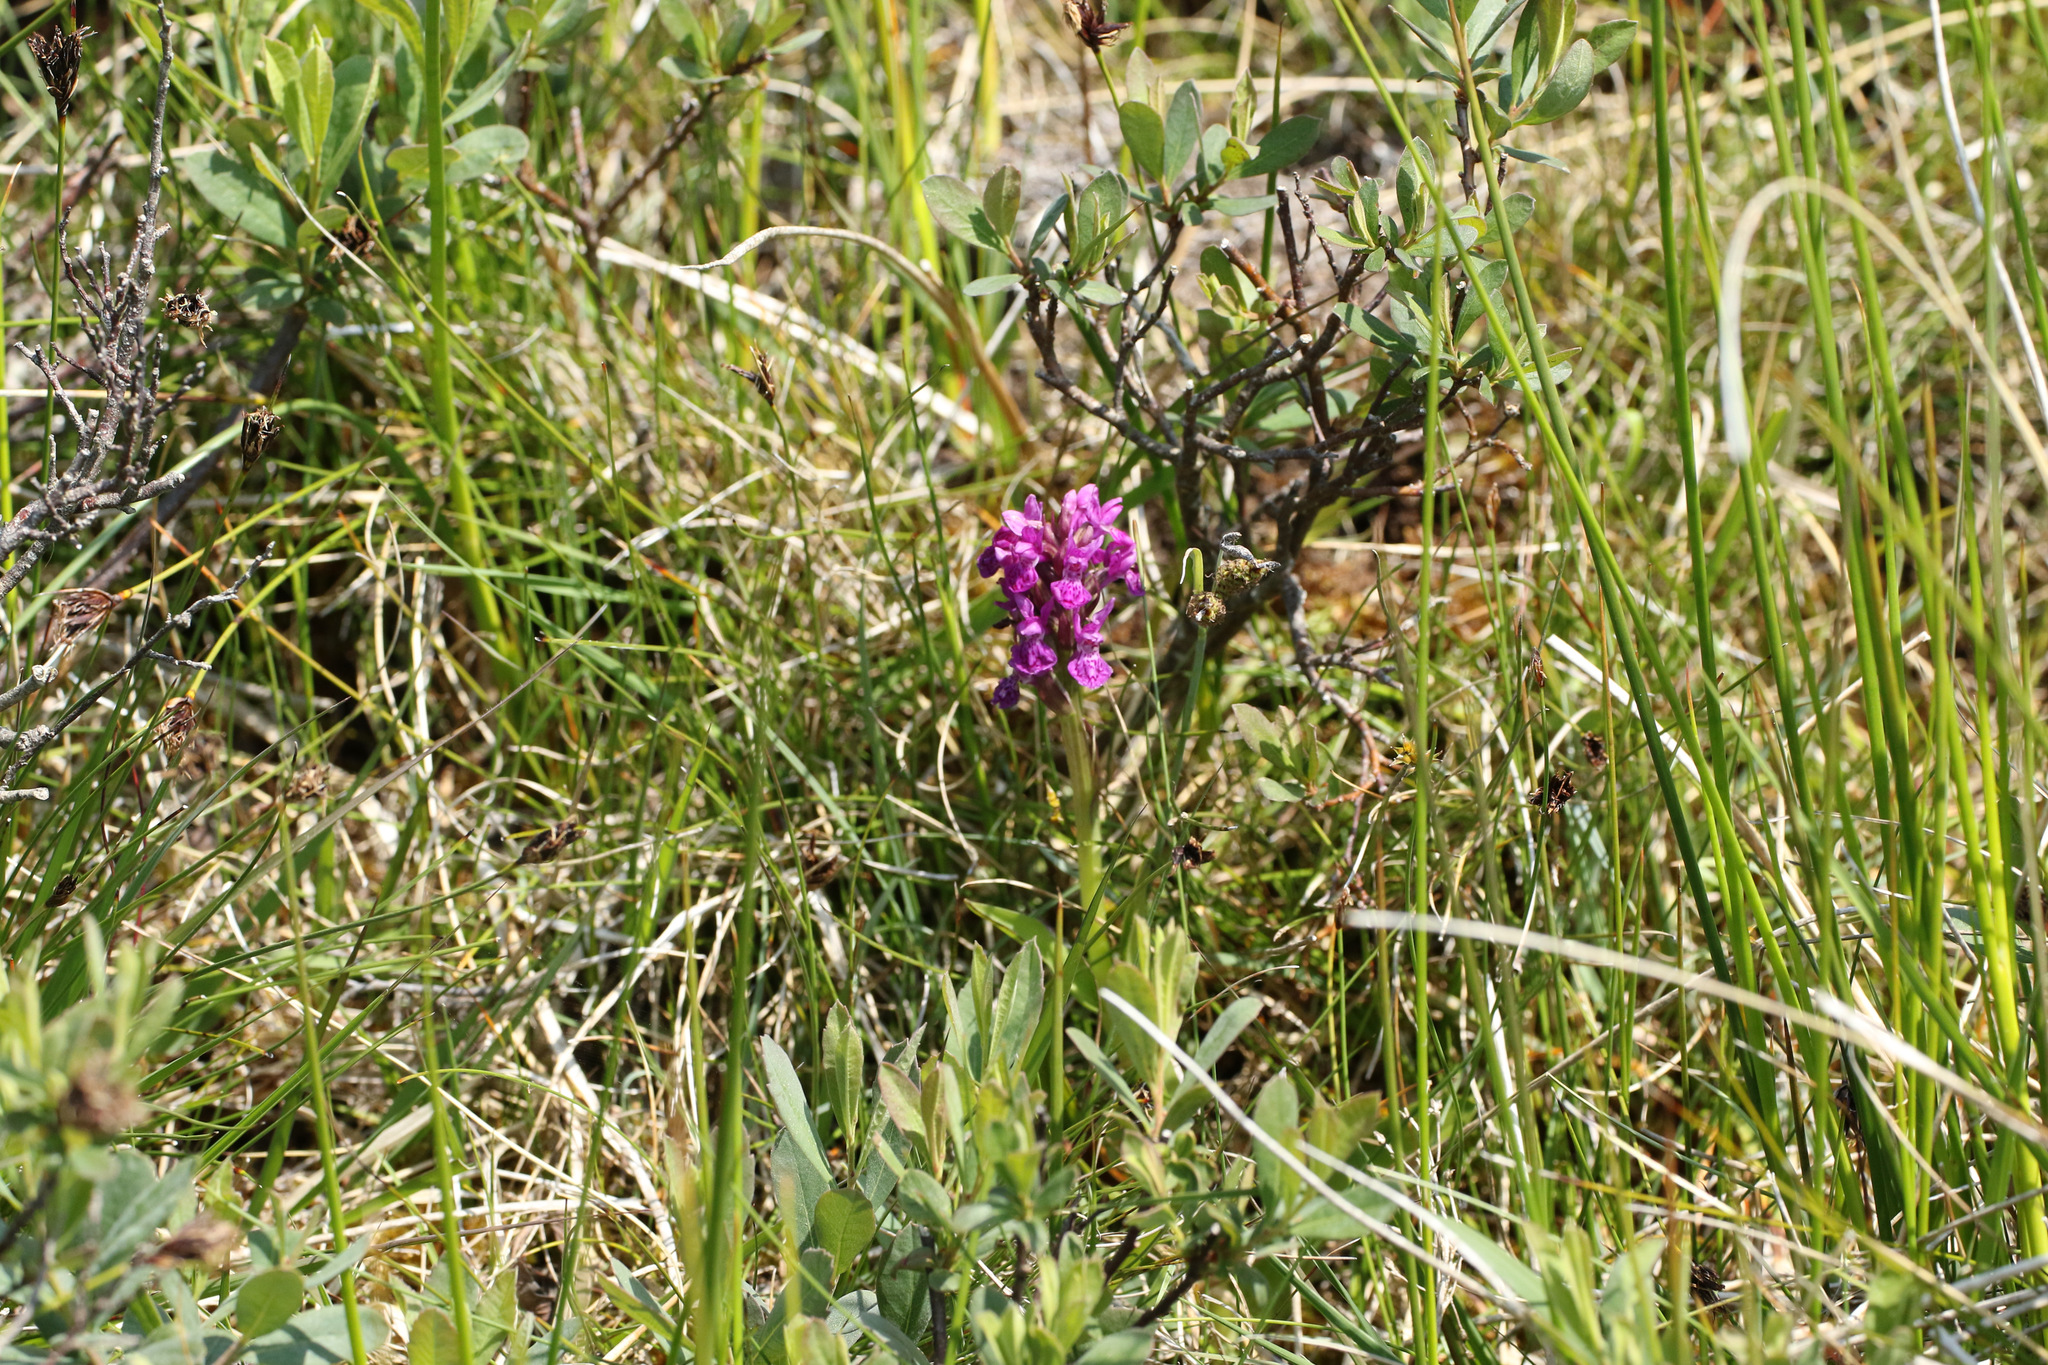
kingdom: Plantae
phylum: Tracheophyta
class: Liliopsida
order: Asparagales
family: Orchidaceae
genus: Dactylorhiza
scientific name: Dactylorhiza majalis
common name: Marsh orchid
